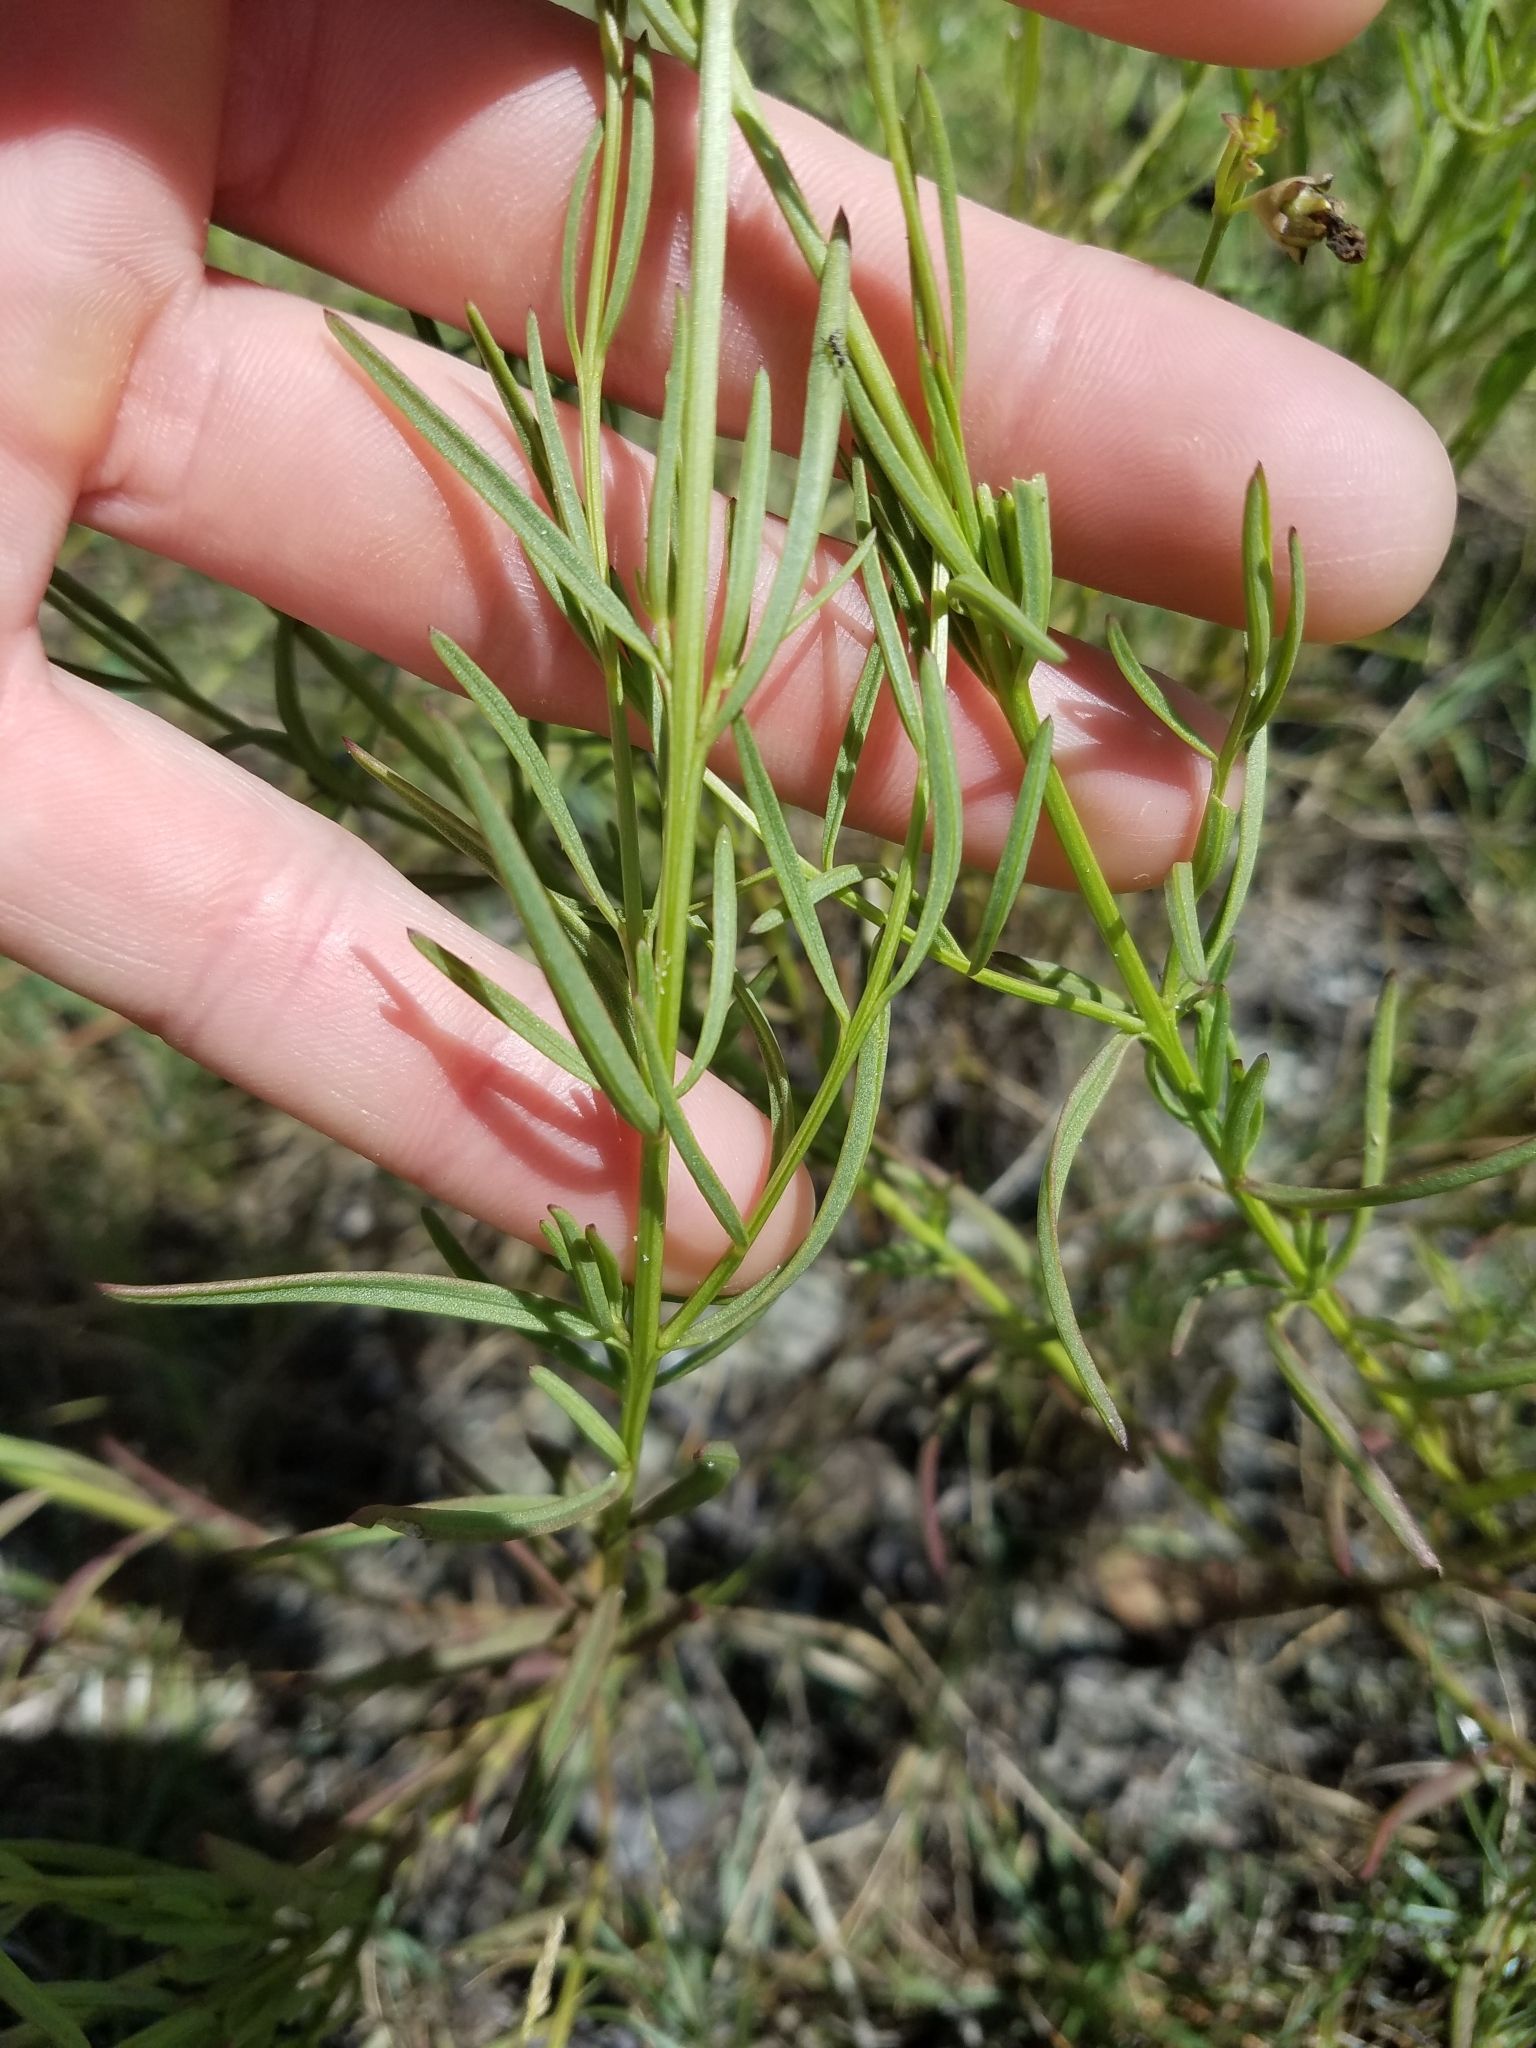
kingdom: Plantae
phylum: Tracheophyta
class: Magnoliopsida
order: Lamiales
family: Orobanchaceae
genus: Agalinis
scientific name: Agalinis maritima
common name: Saltmarsh agalinis
